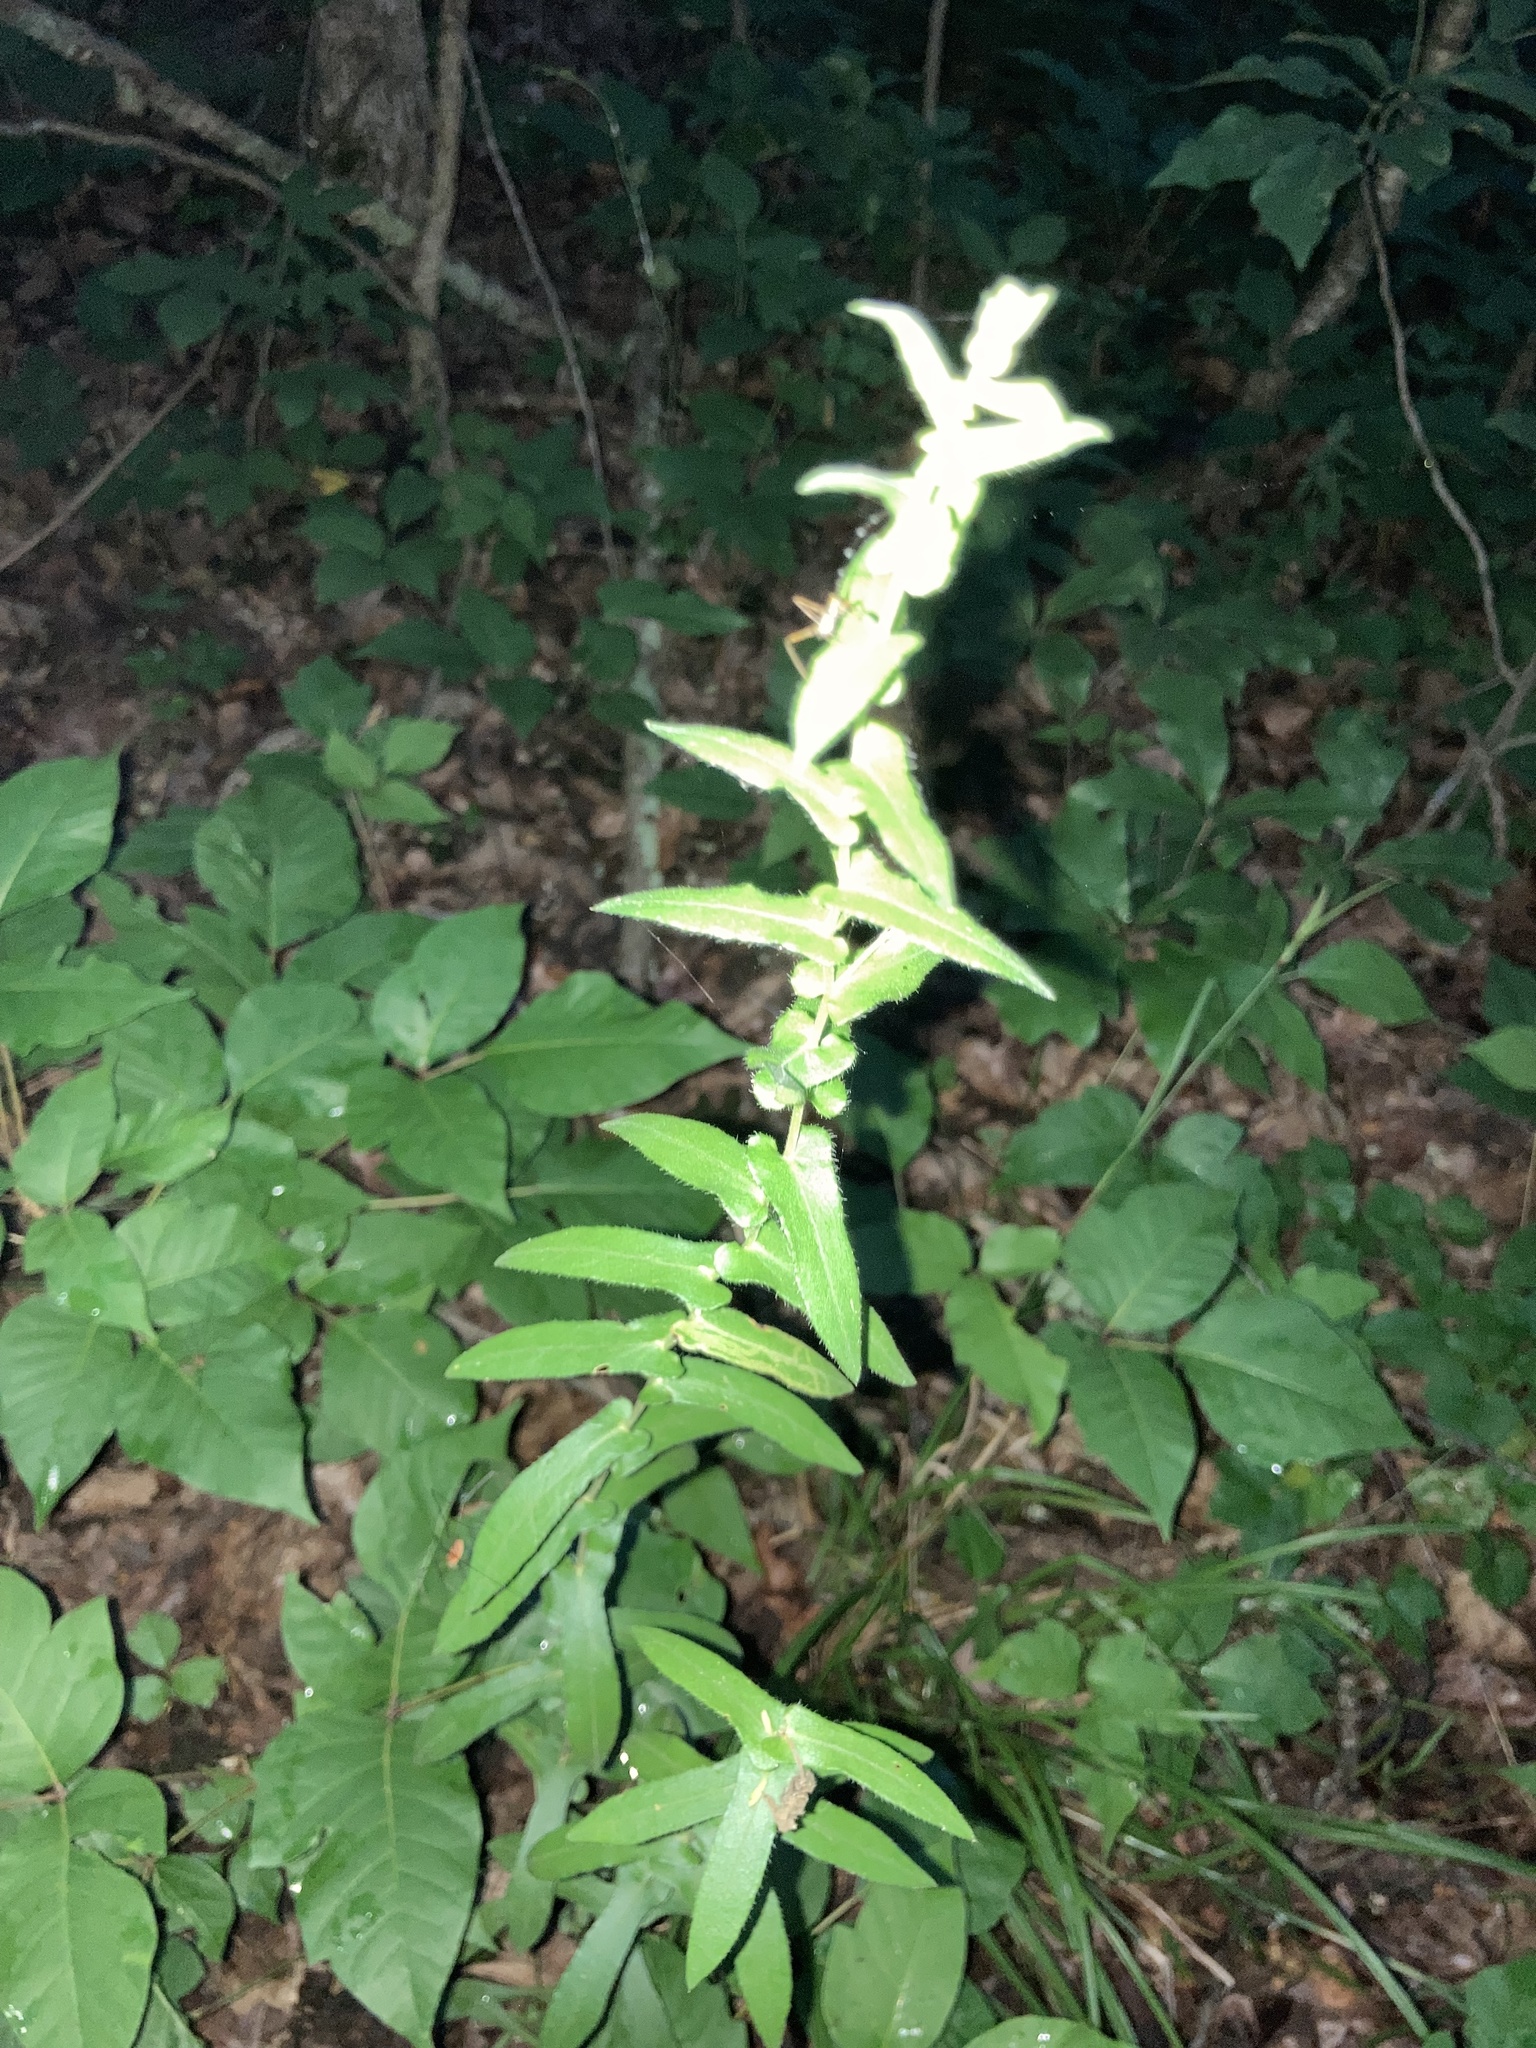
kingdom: Plantae
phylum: Tracheophyta
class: Magnoliopsida
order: Asterales
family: Asteraceae
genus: Symphyotrichum
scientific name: Symphyotrichum patens
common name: Late purple aster
